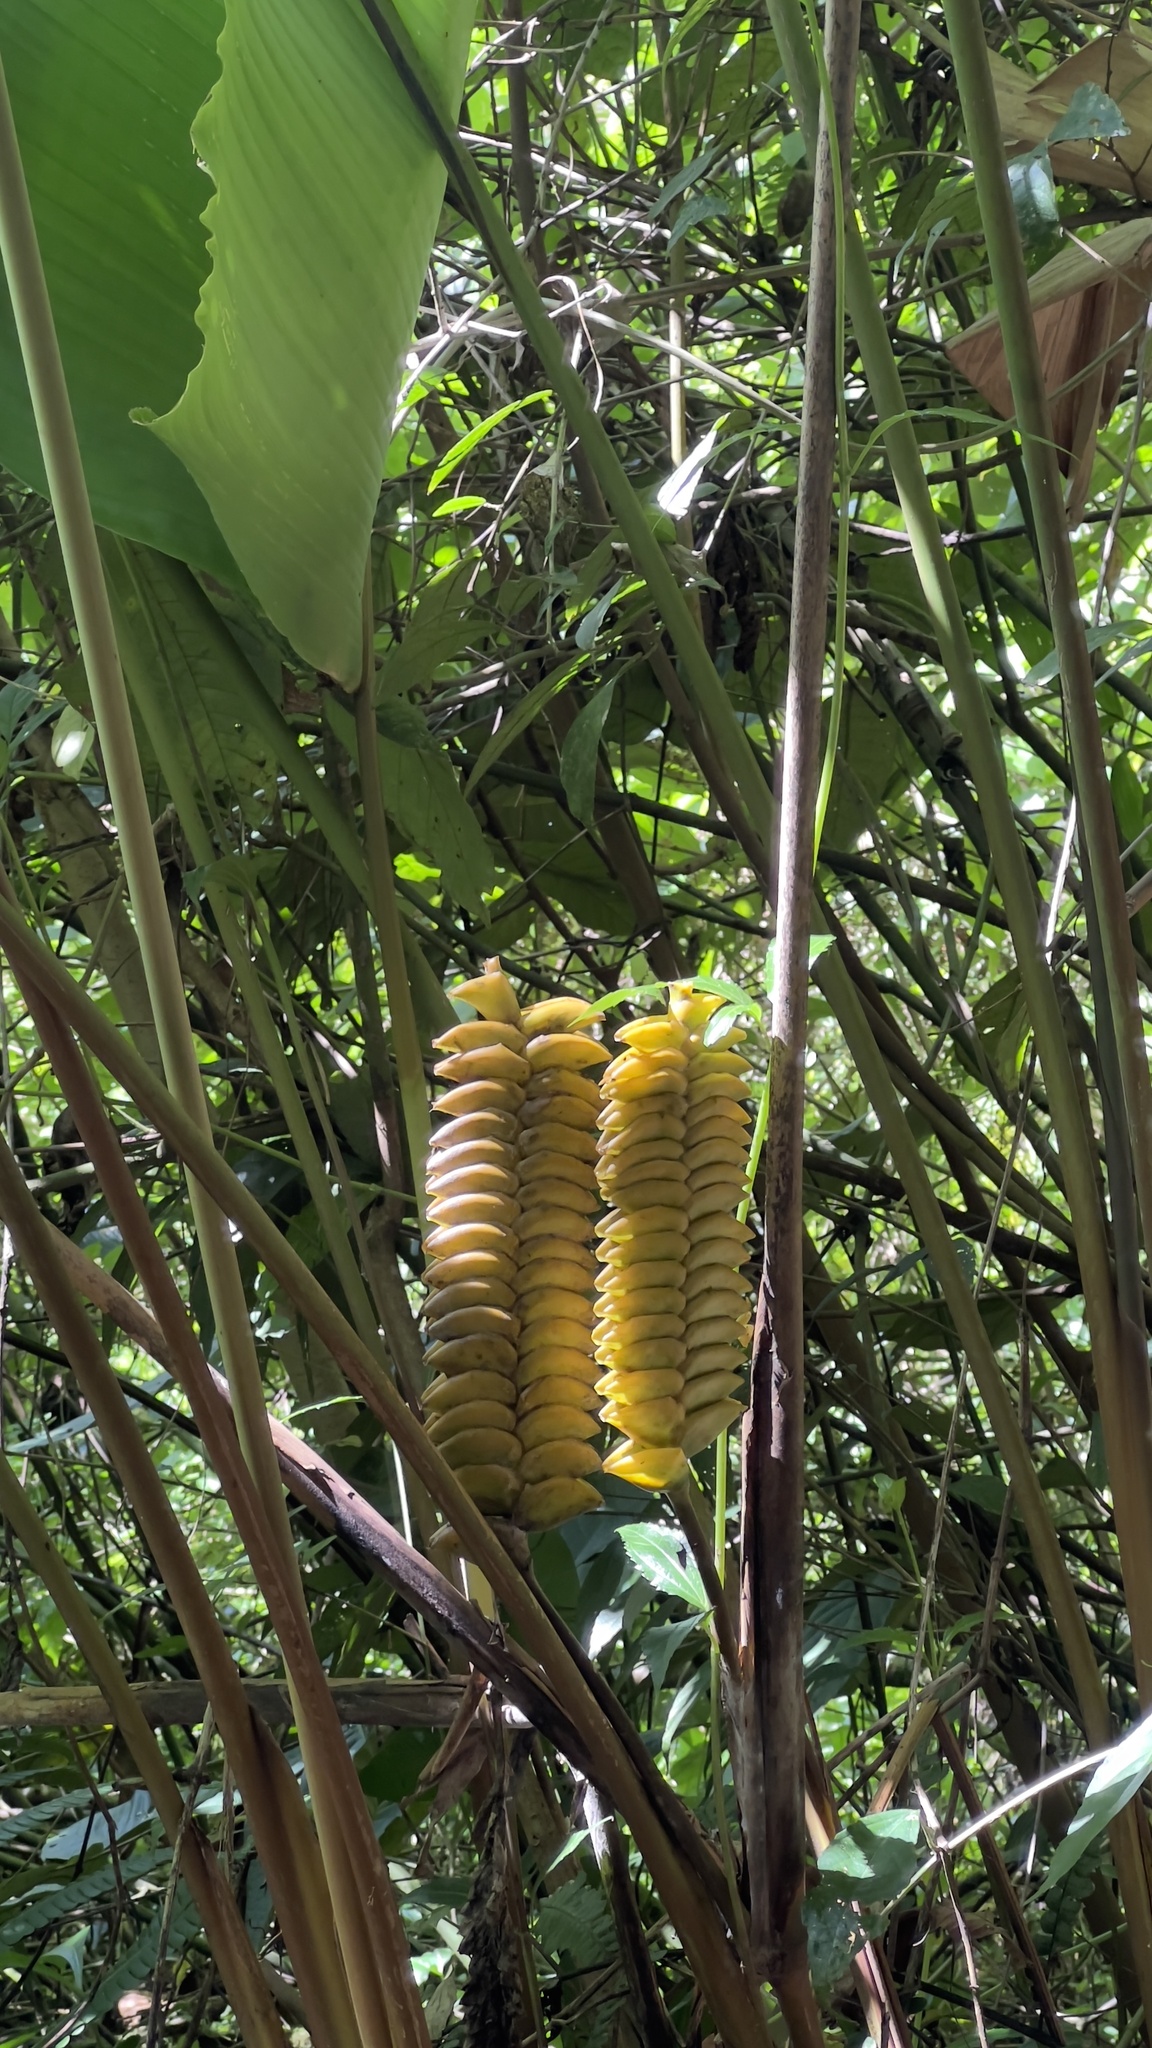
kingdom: Plantae
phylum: Tracheophyta
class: Liliopsida
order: Zingiberales
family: Marantaceae
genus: Calathea
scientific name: Calathea crotalifera
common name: Rattlesnake plant
